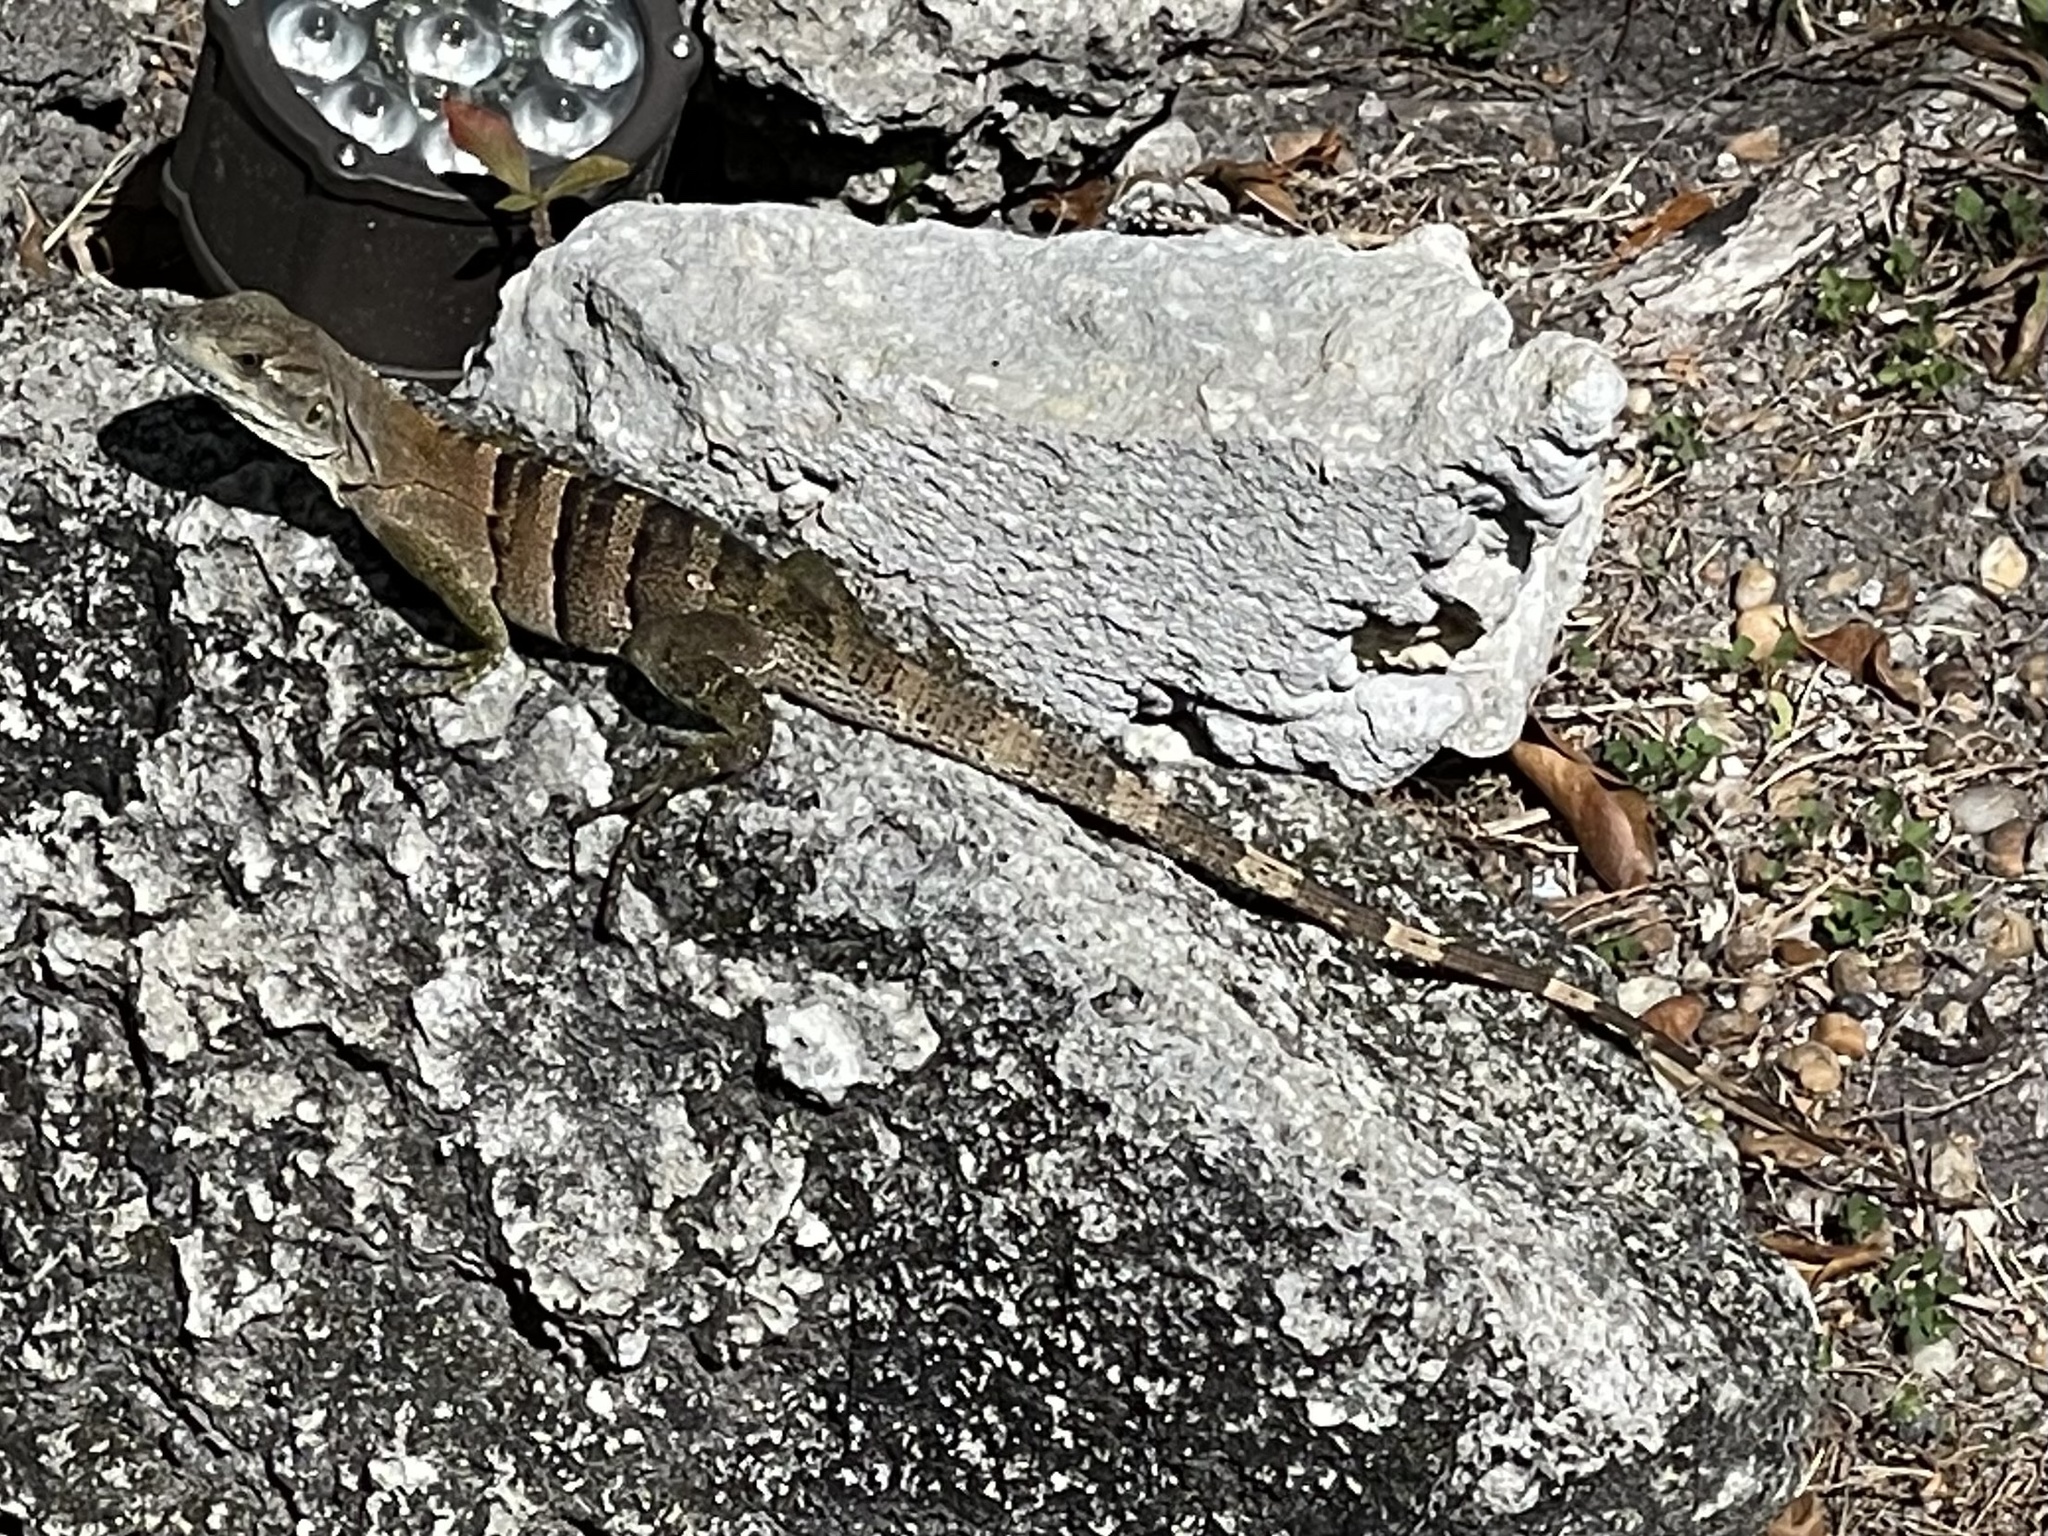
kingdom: Animalia
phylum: Chordata
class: Squamata
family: Iguanidae
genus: Ctenosaura
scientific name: Ctenosaura similis
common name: Black spiny-tailed iguana
